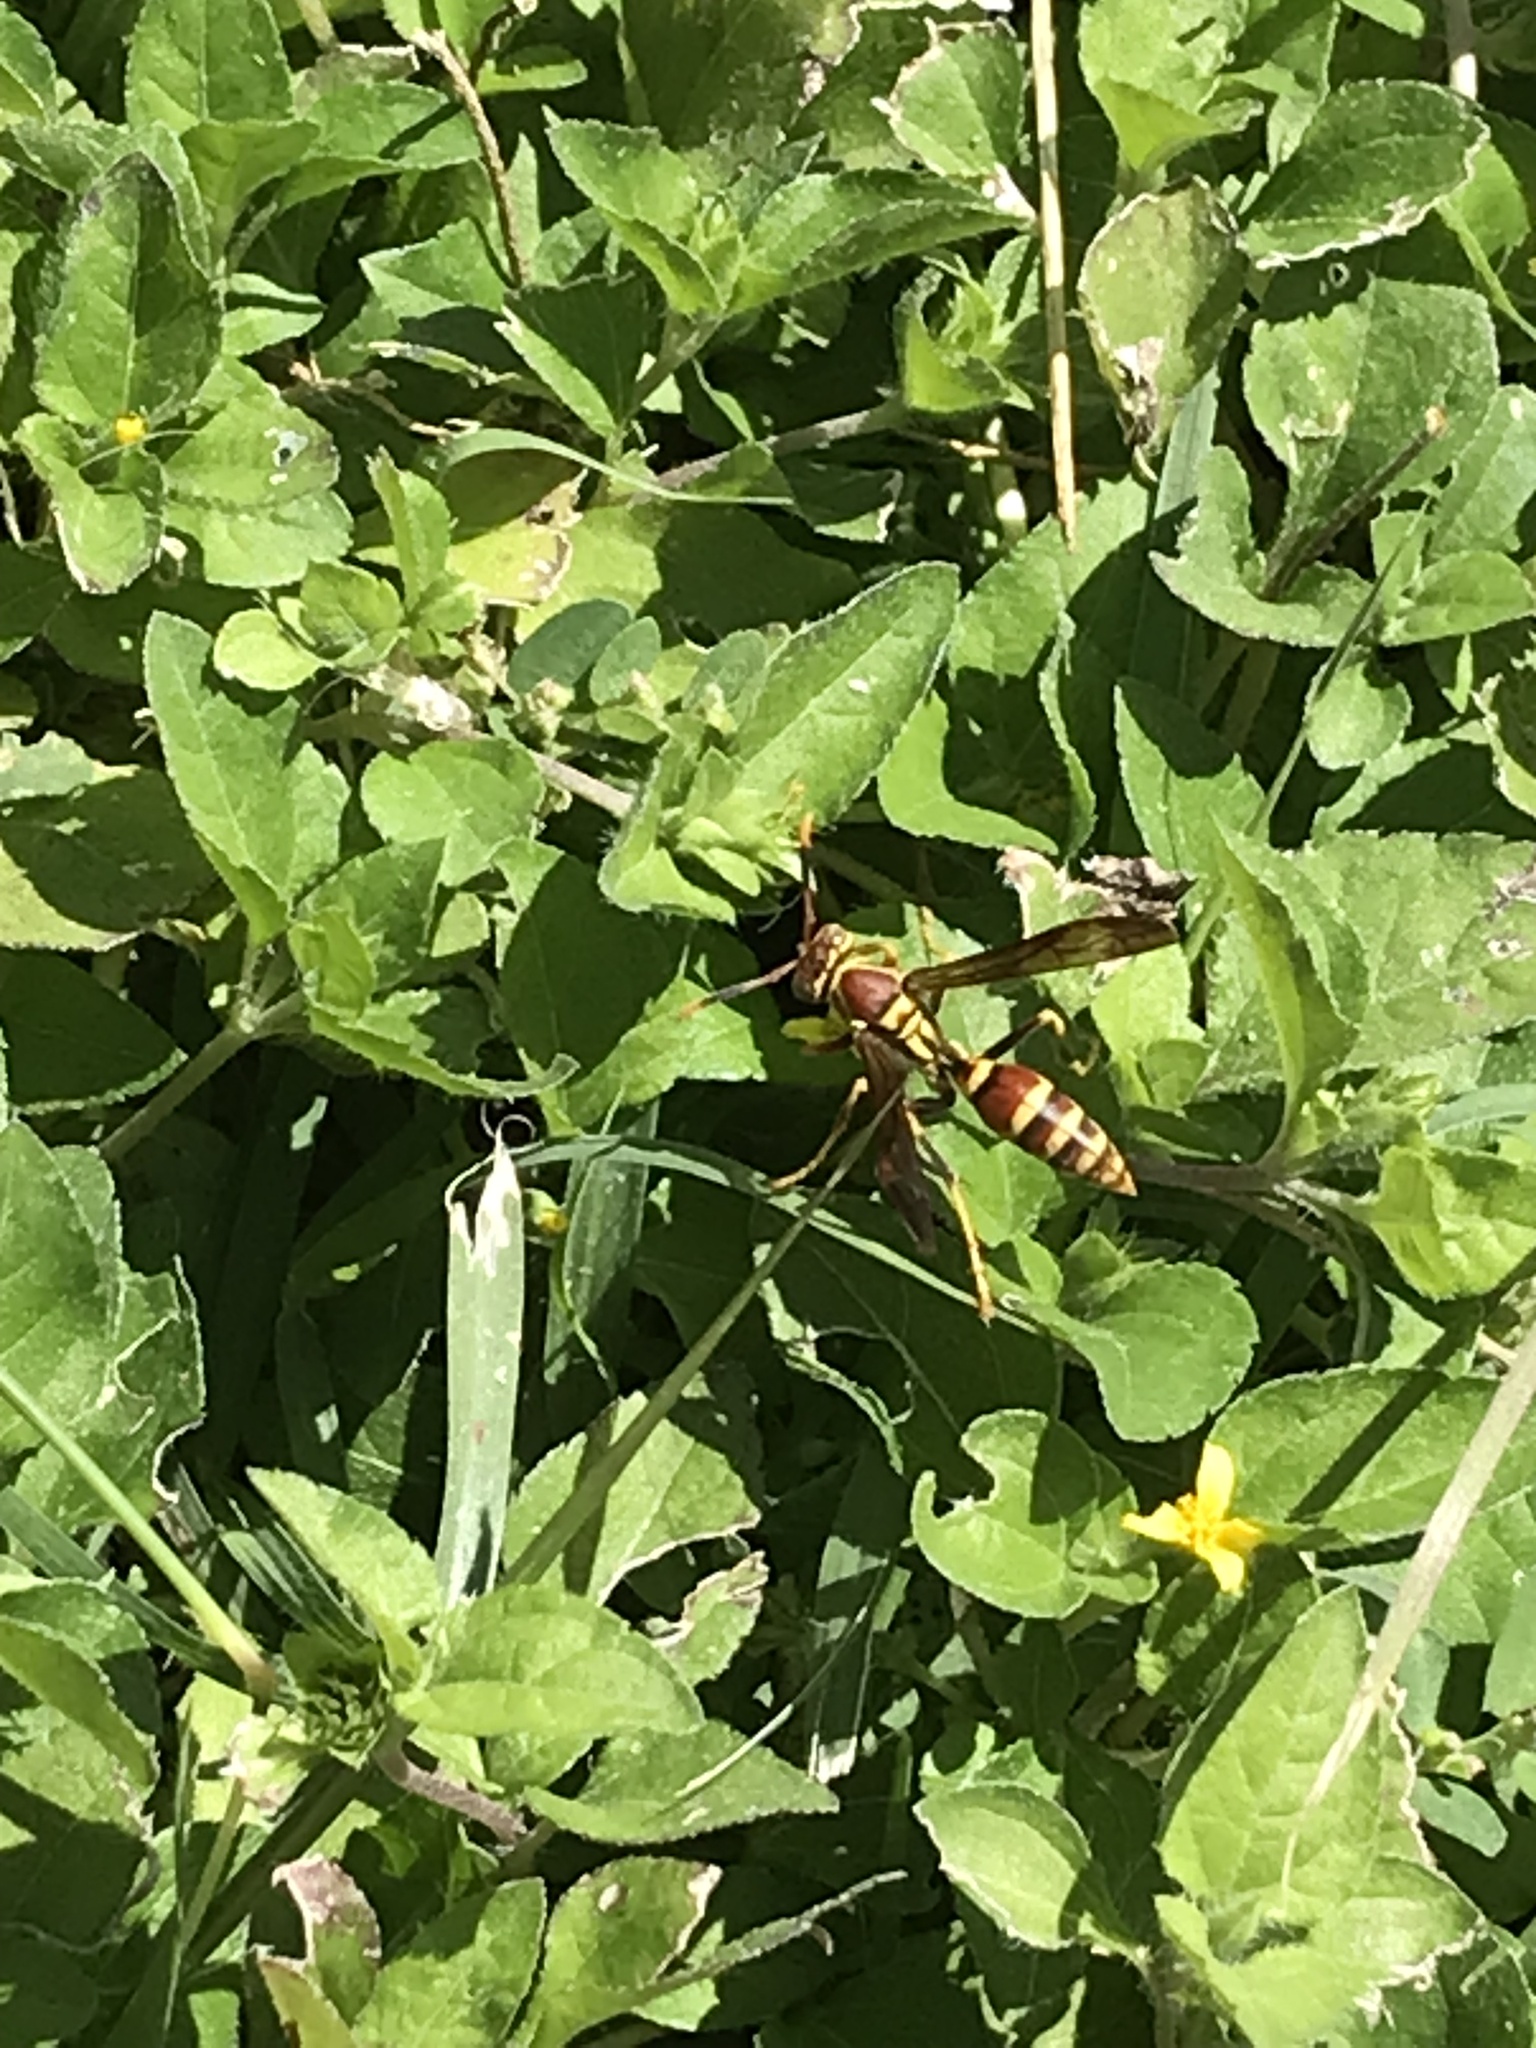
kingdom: Animalia
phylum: Arthropoda
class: Insecta
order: Hymenoptera
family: Eumenidae
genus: Polistes
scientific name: Polistes exclamans
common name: Paper wasp
